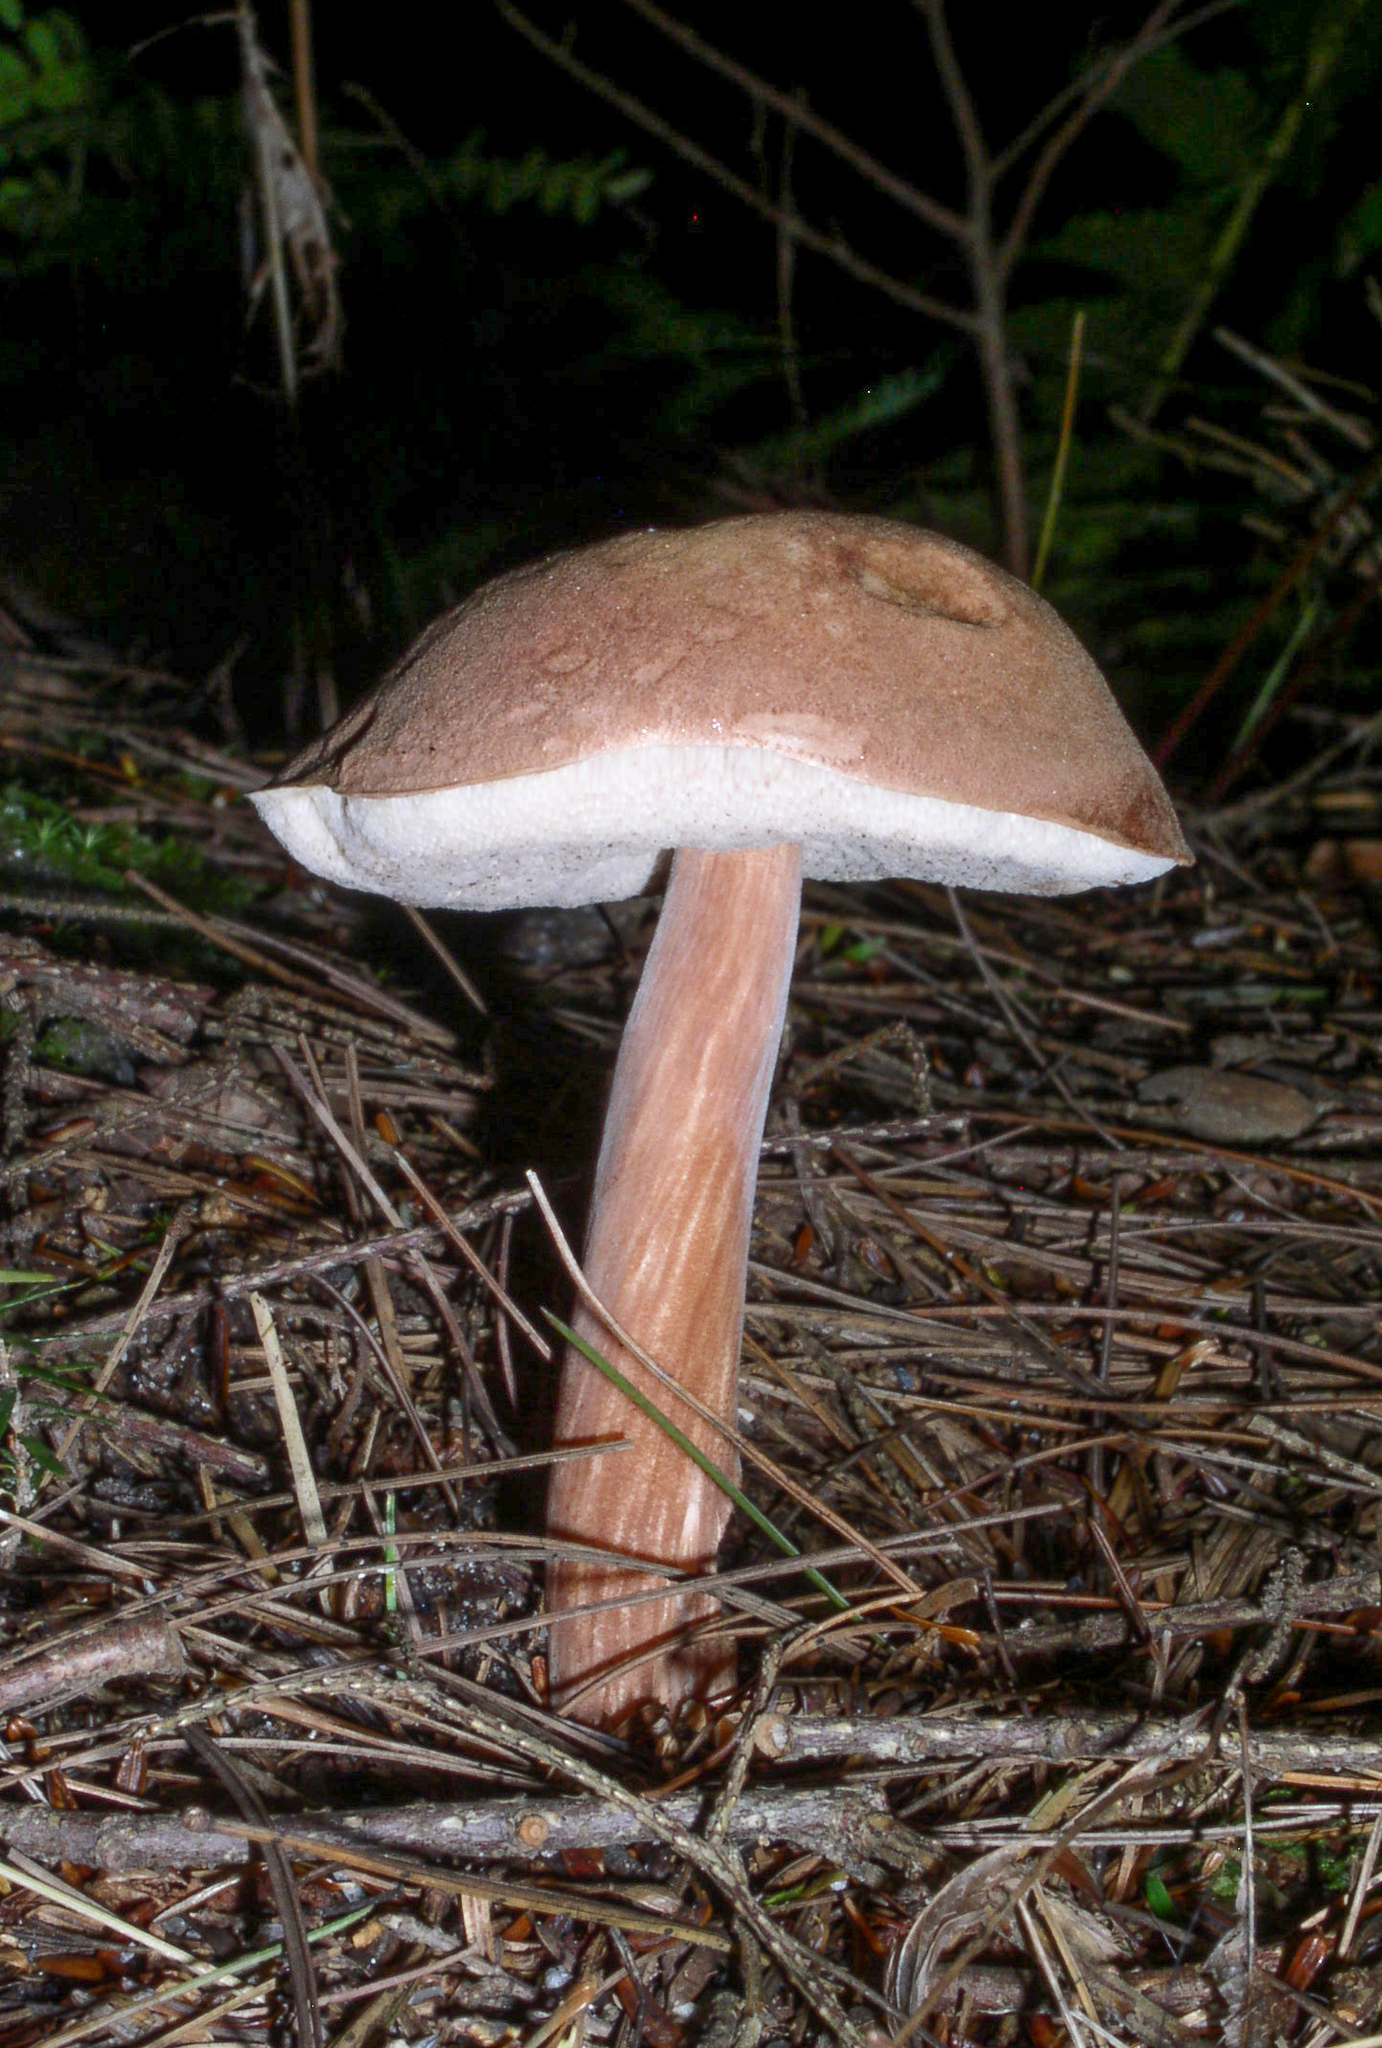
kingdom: Fungi
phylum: Basidiomycota
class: Agaricomycetes
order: Boletales
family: Boletaceae
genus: Austroboletus
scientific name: Austroboletus gracilis
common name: Graceful bolete
